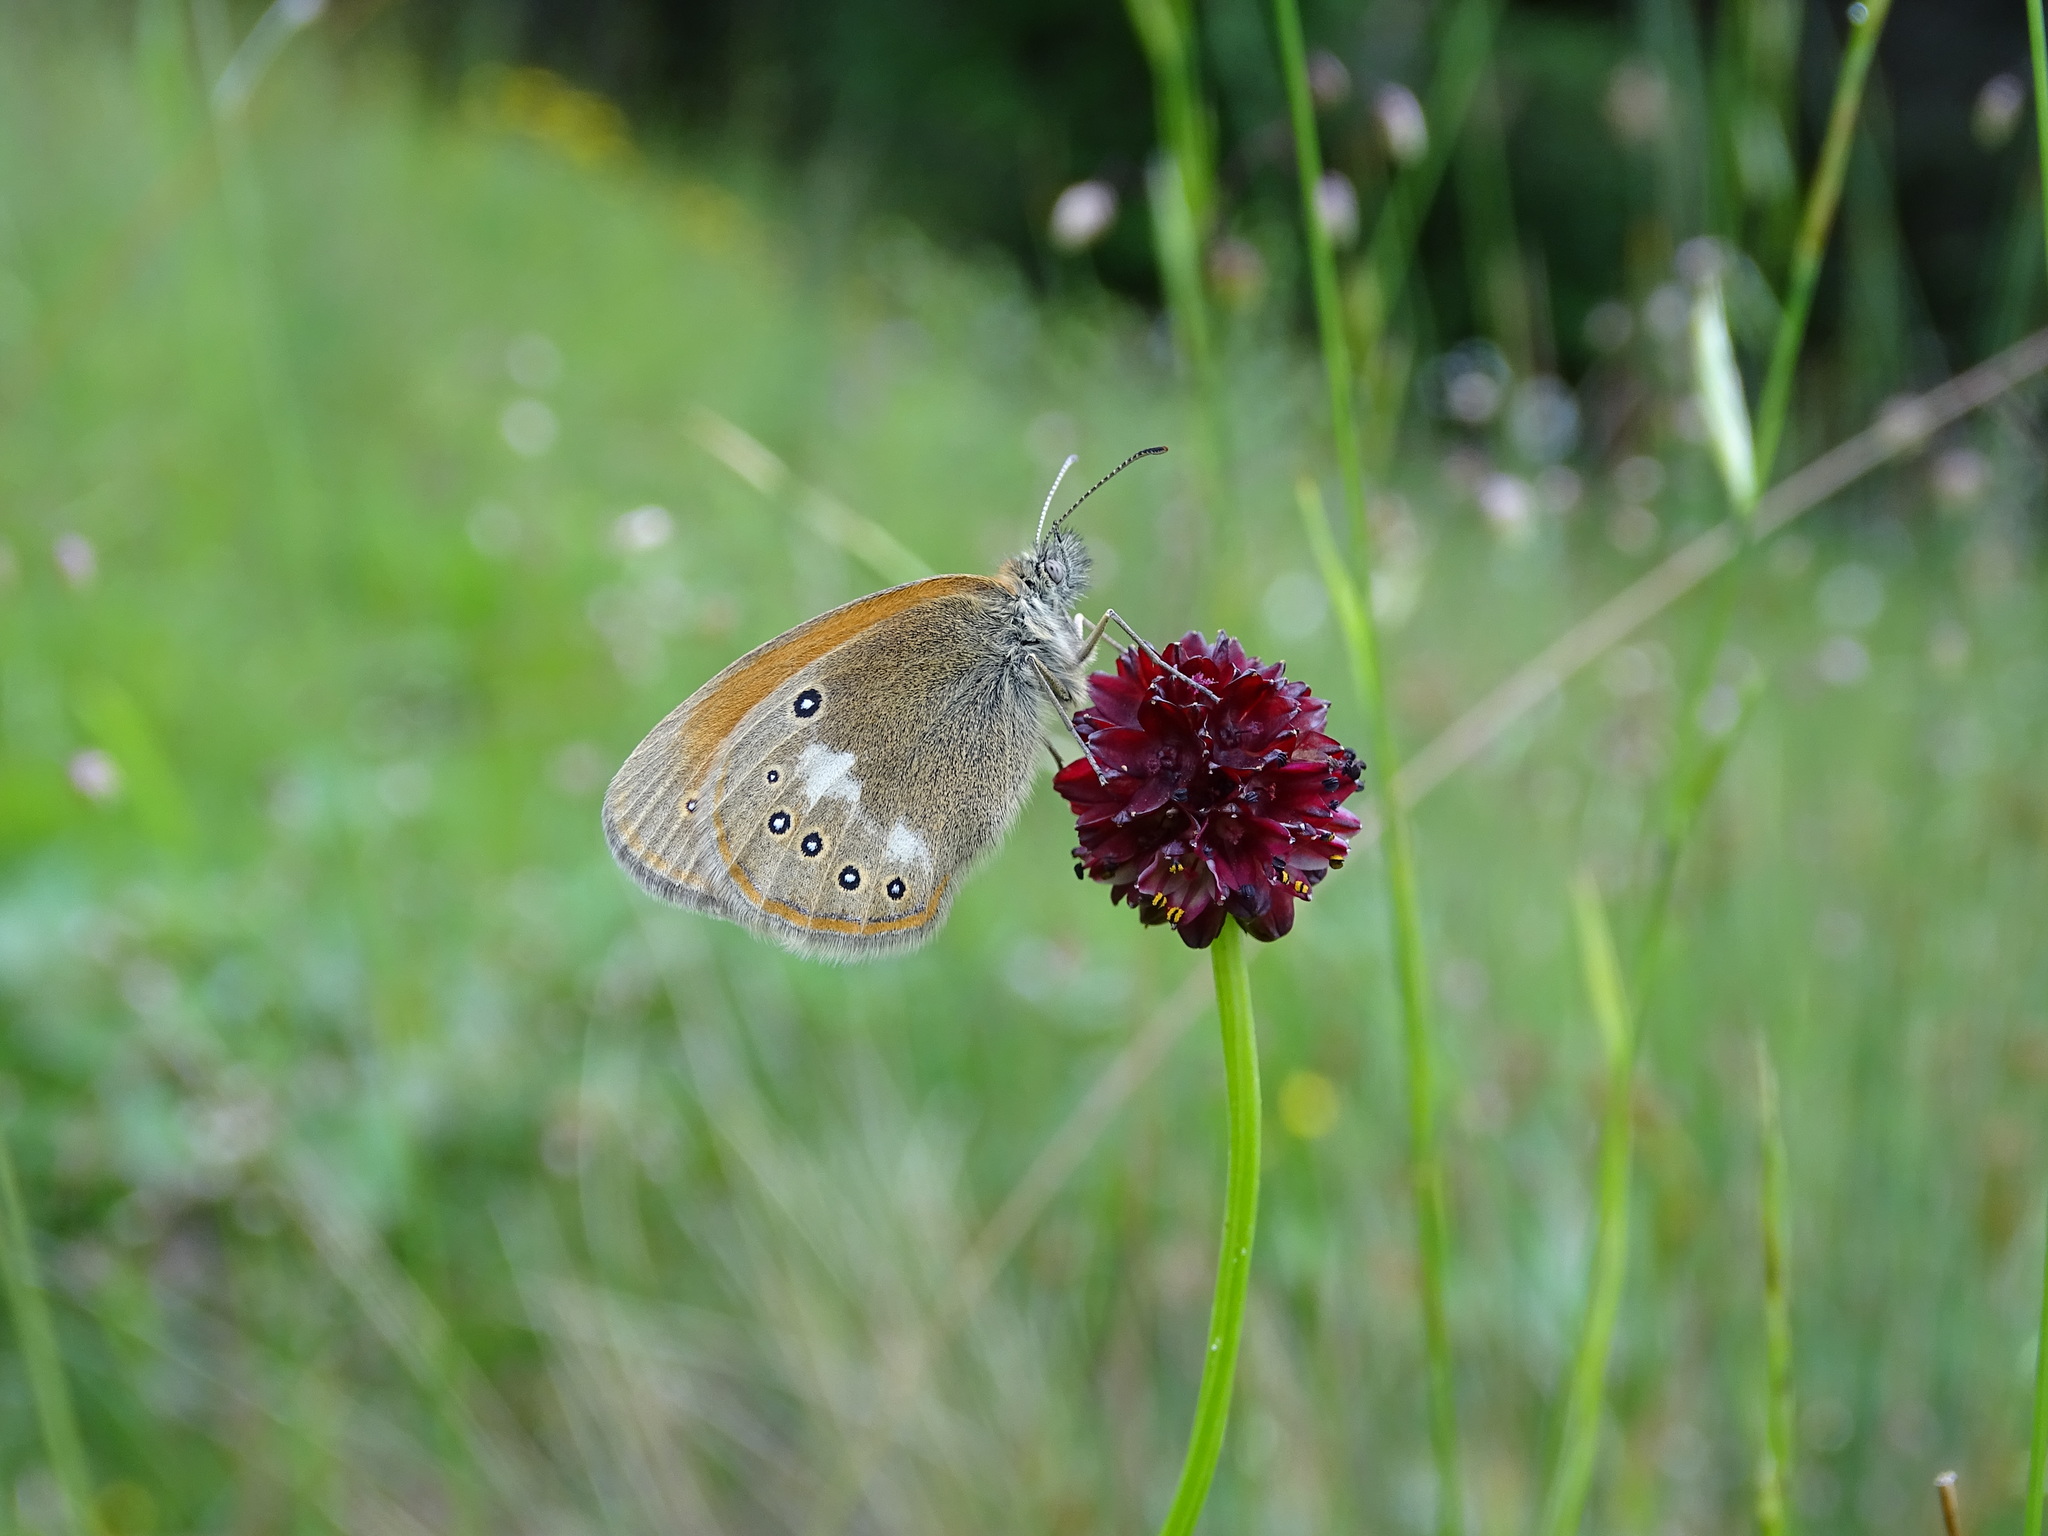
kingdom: Animalia
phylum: Arthropoda
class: Insecta
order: Lepidoptera
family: Nymphalidae
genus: Coenonympha
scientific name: Coenonympha iphis
